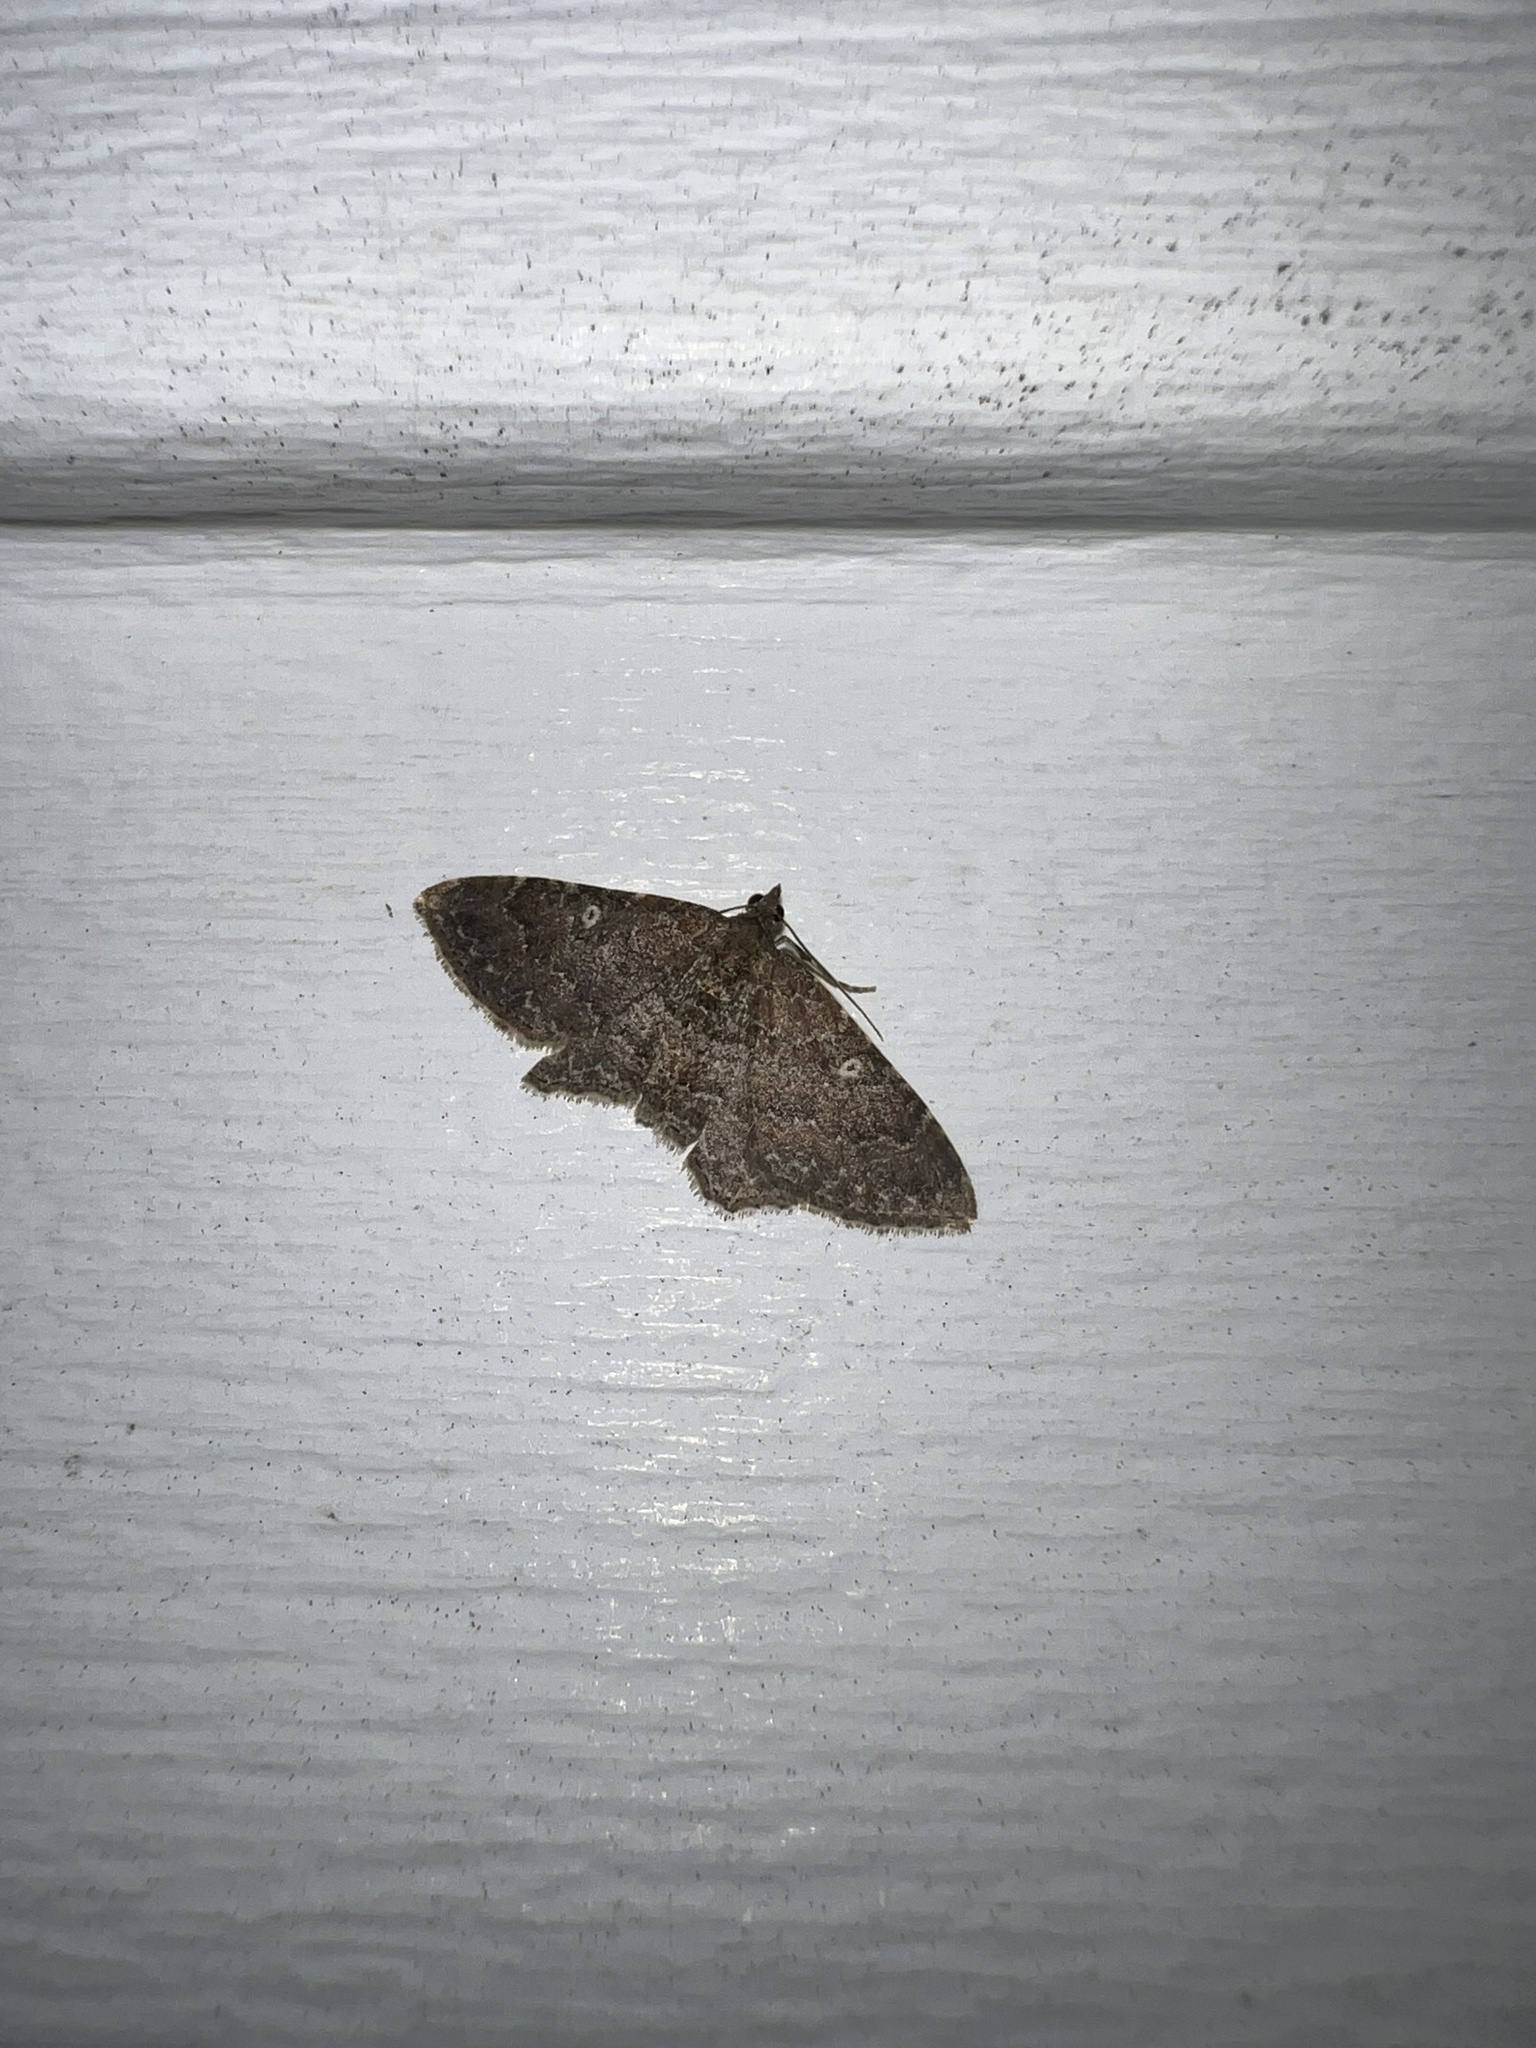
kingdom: Animalia
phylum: Arthropoda
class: Insecta
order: Lepidoptera
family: Geometridae
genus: Orthonama
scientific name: Orthonama obstipata
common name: The gem
